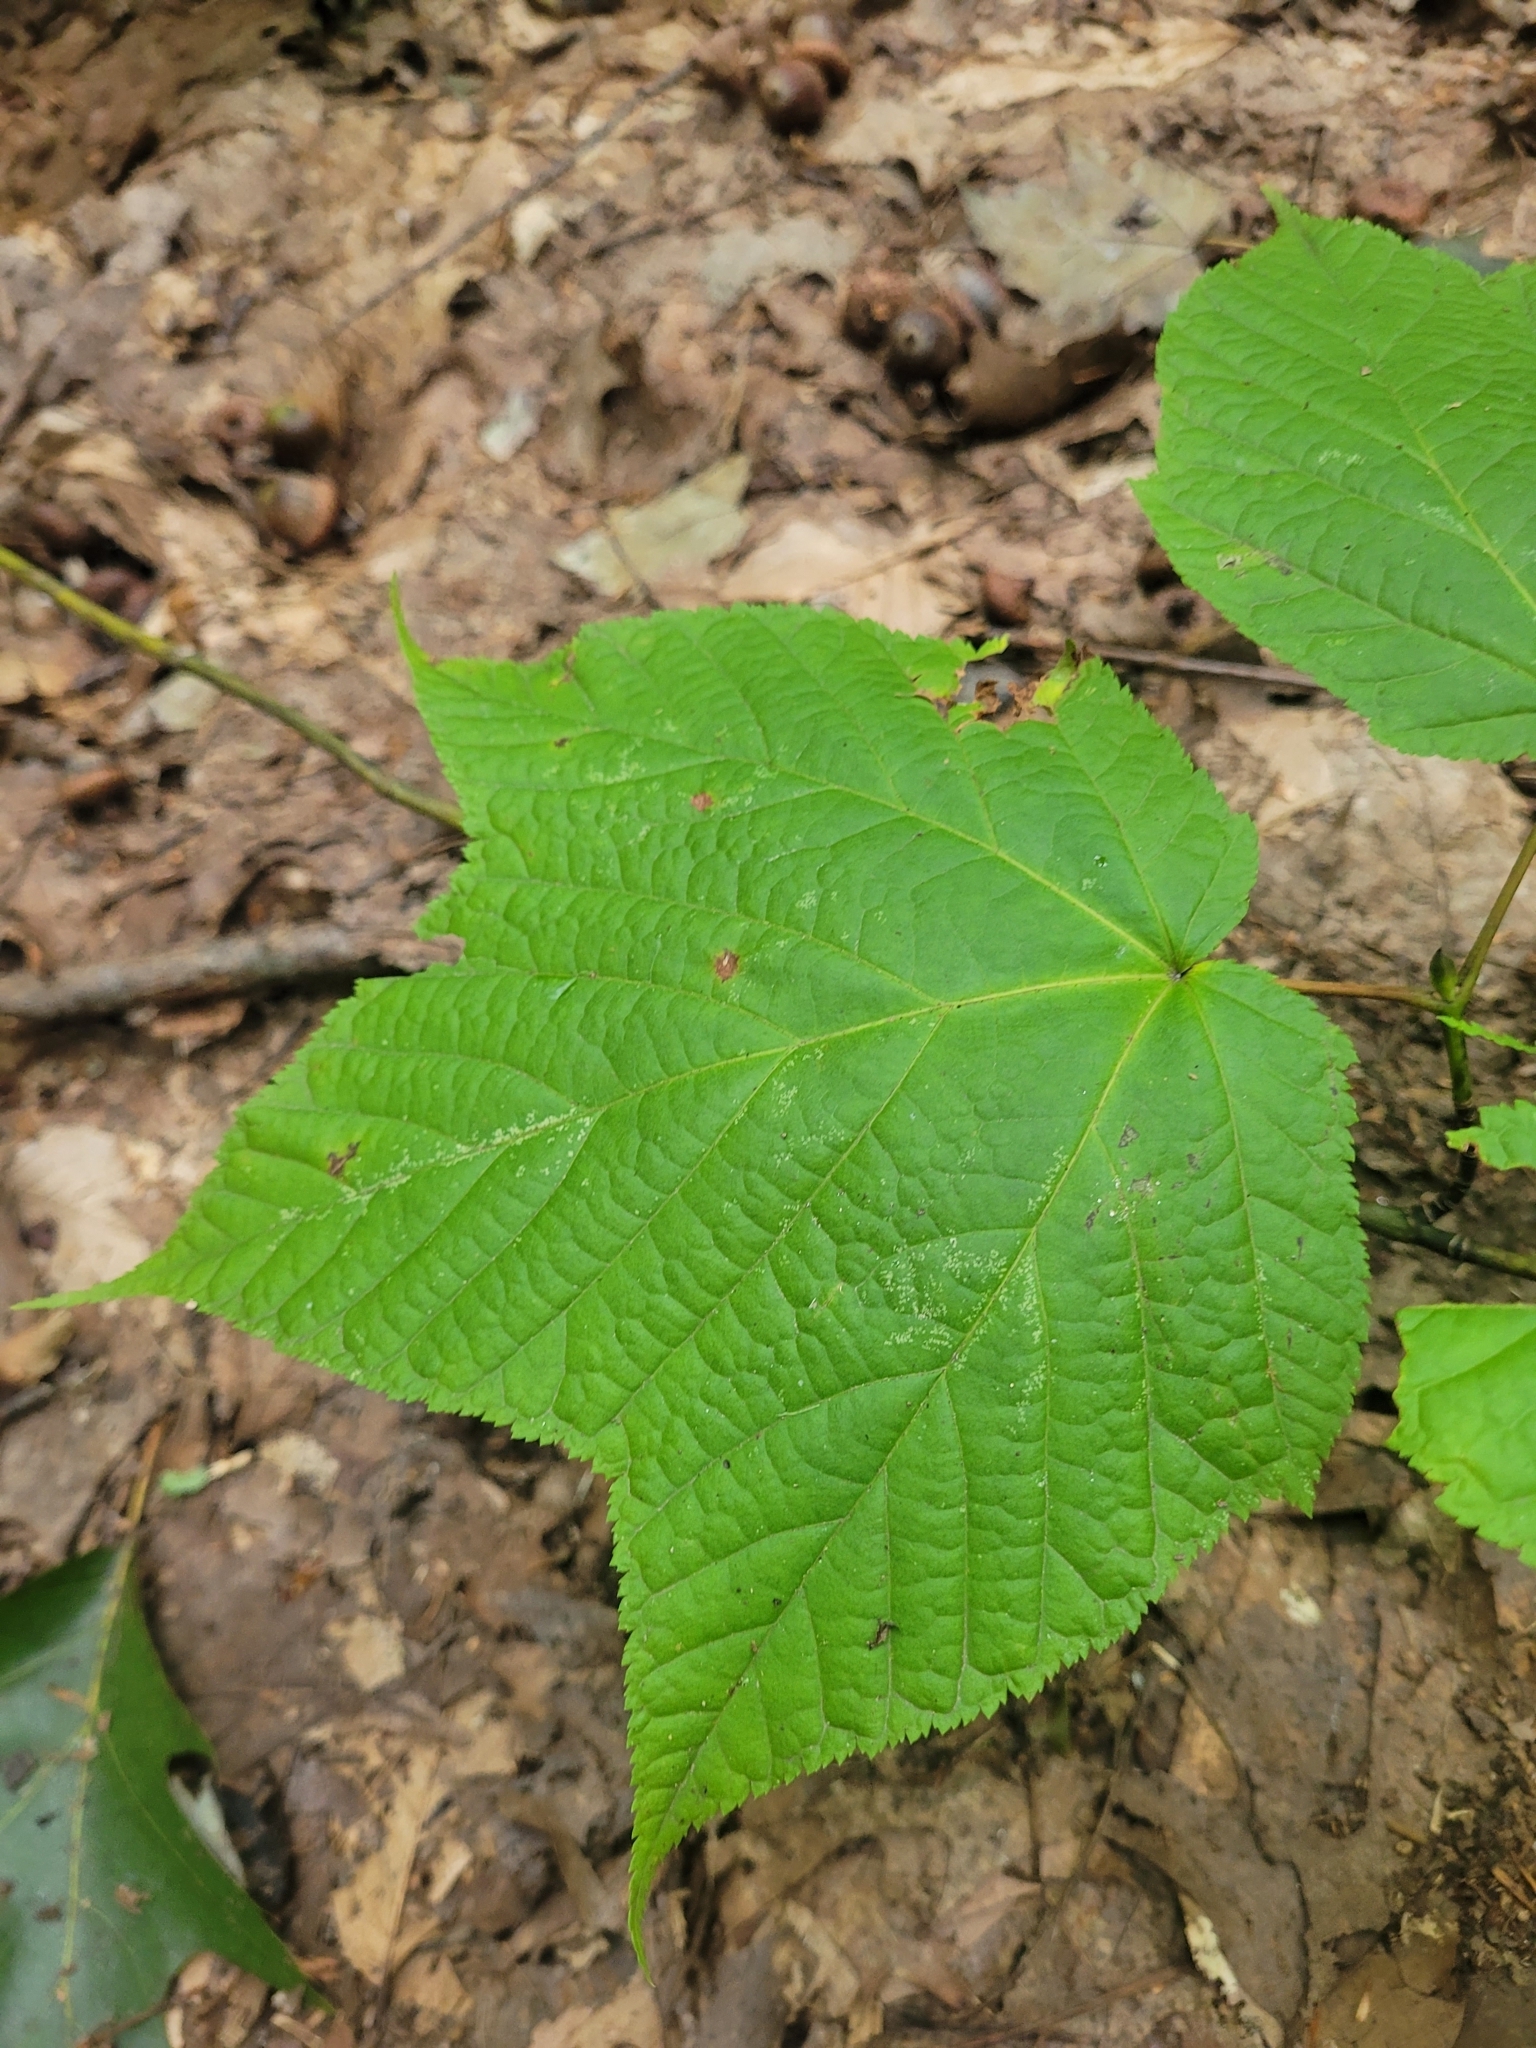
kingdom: Plantae
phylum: Tracheophyta
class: Magnoliopsida
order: Sapindales
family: Sapindaceae
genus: Acer
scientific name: Acer pensylvanicum
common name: Moosewood
